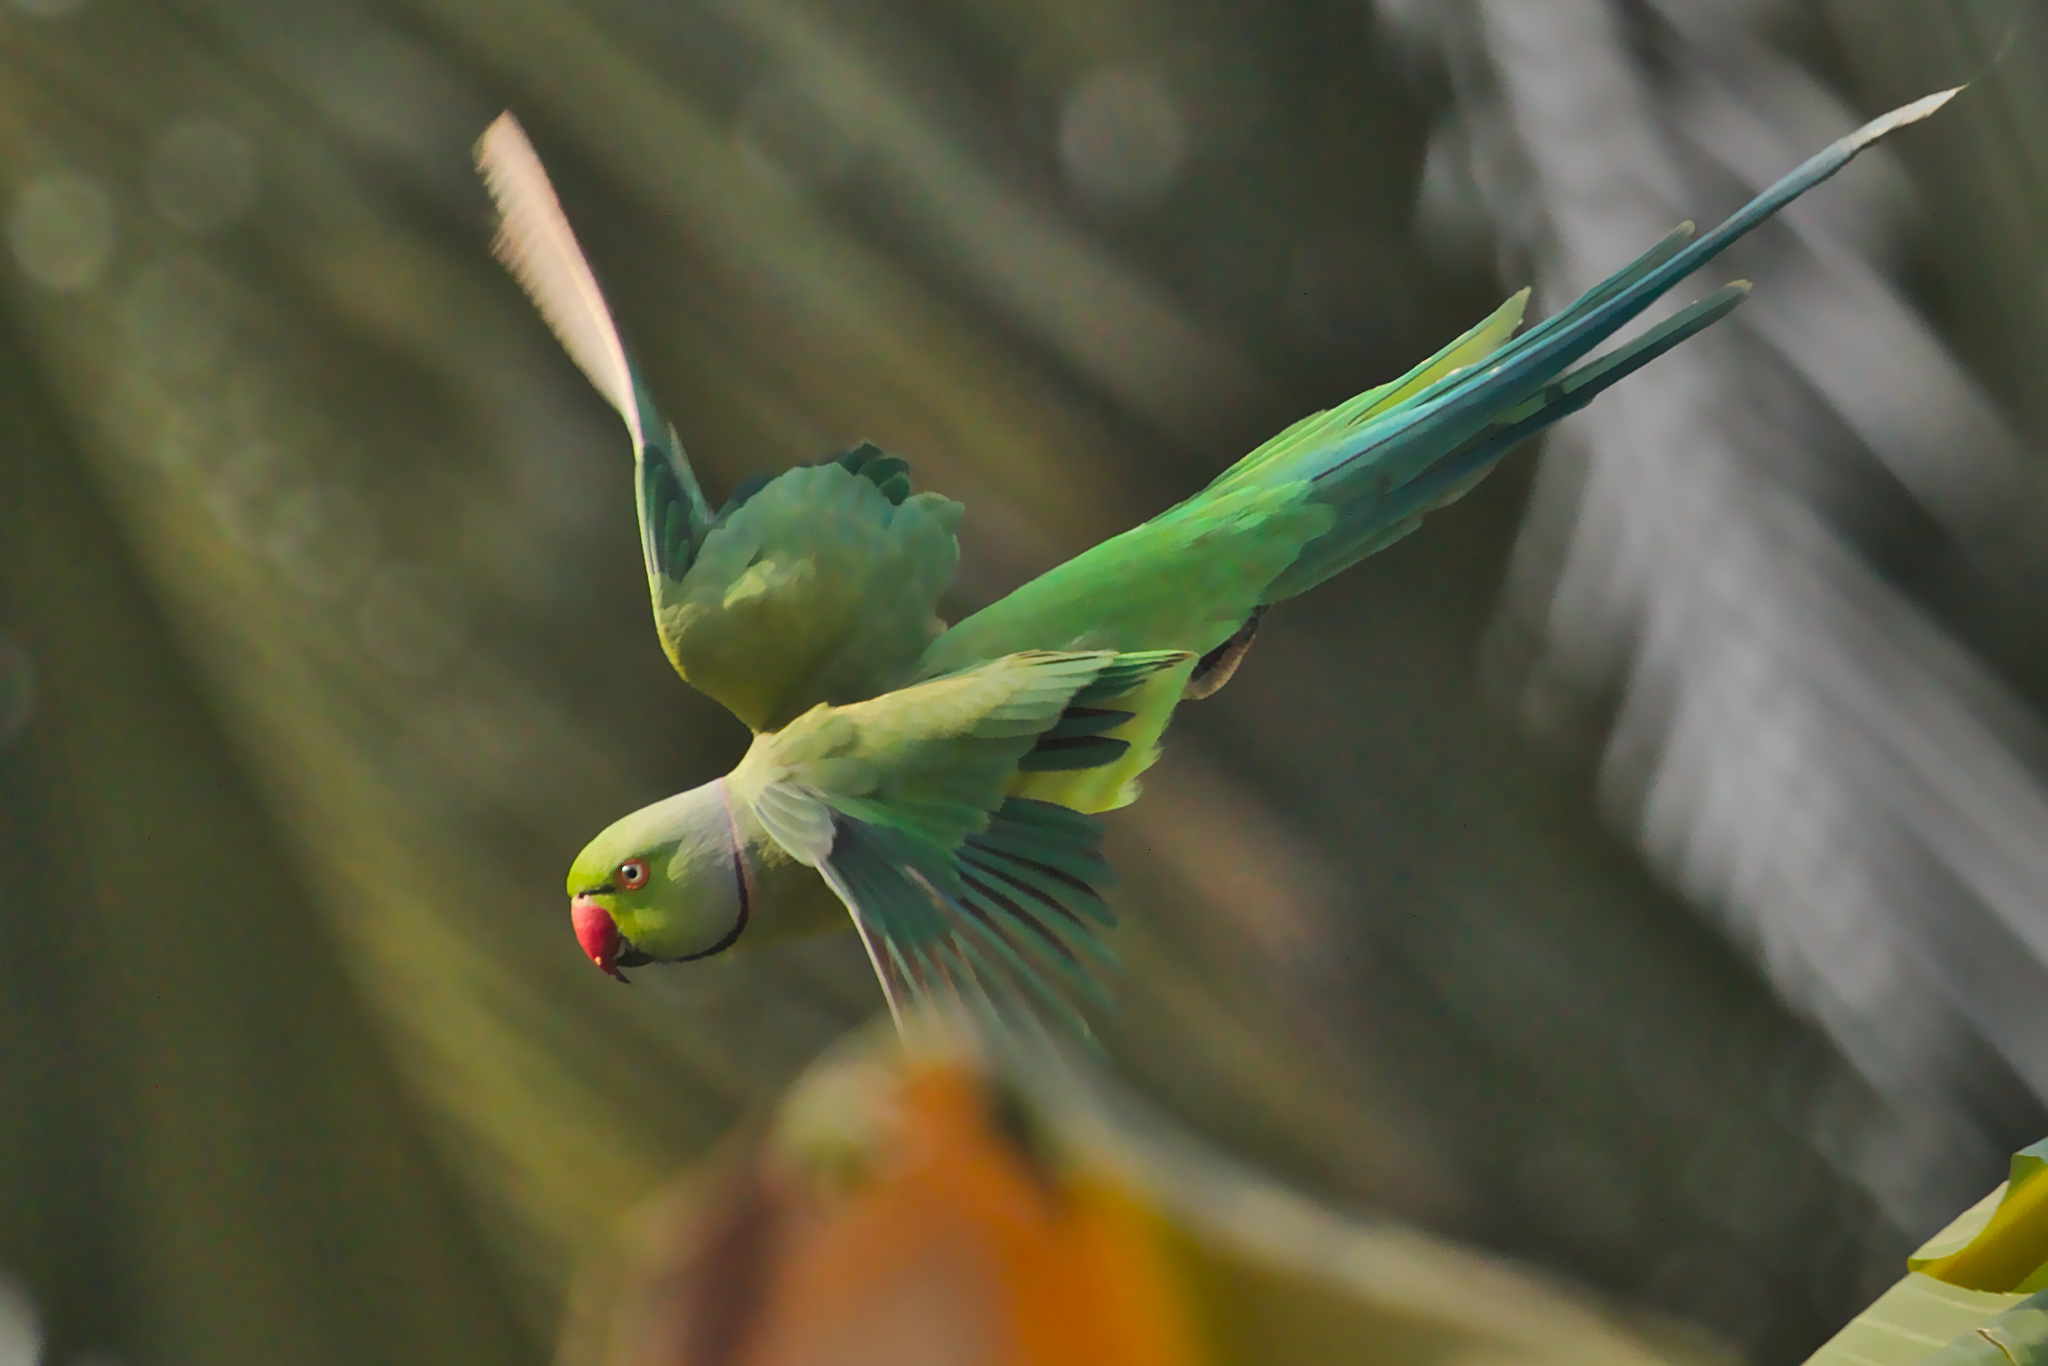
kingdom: Animalia
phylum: Chordata
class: Aves
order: Psittaciformes
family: Psittacidae
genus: Psittacula
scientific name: Psittacula krameri
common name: Rose-ringed parakeet
